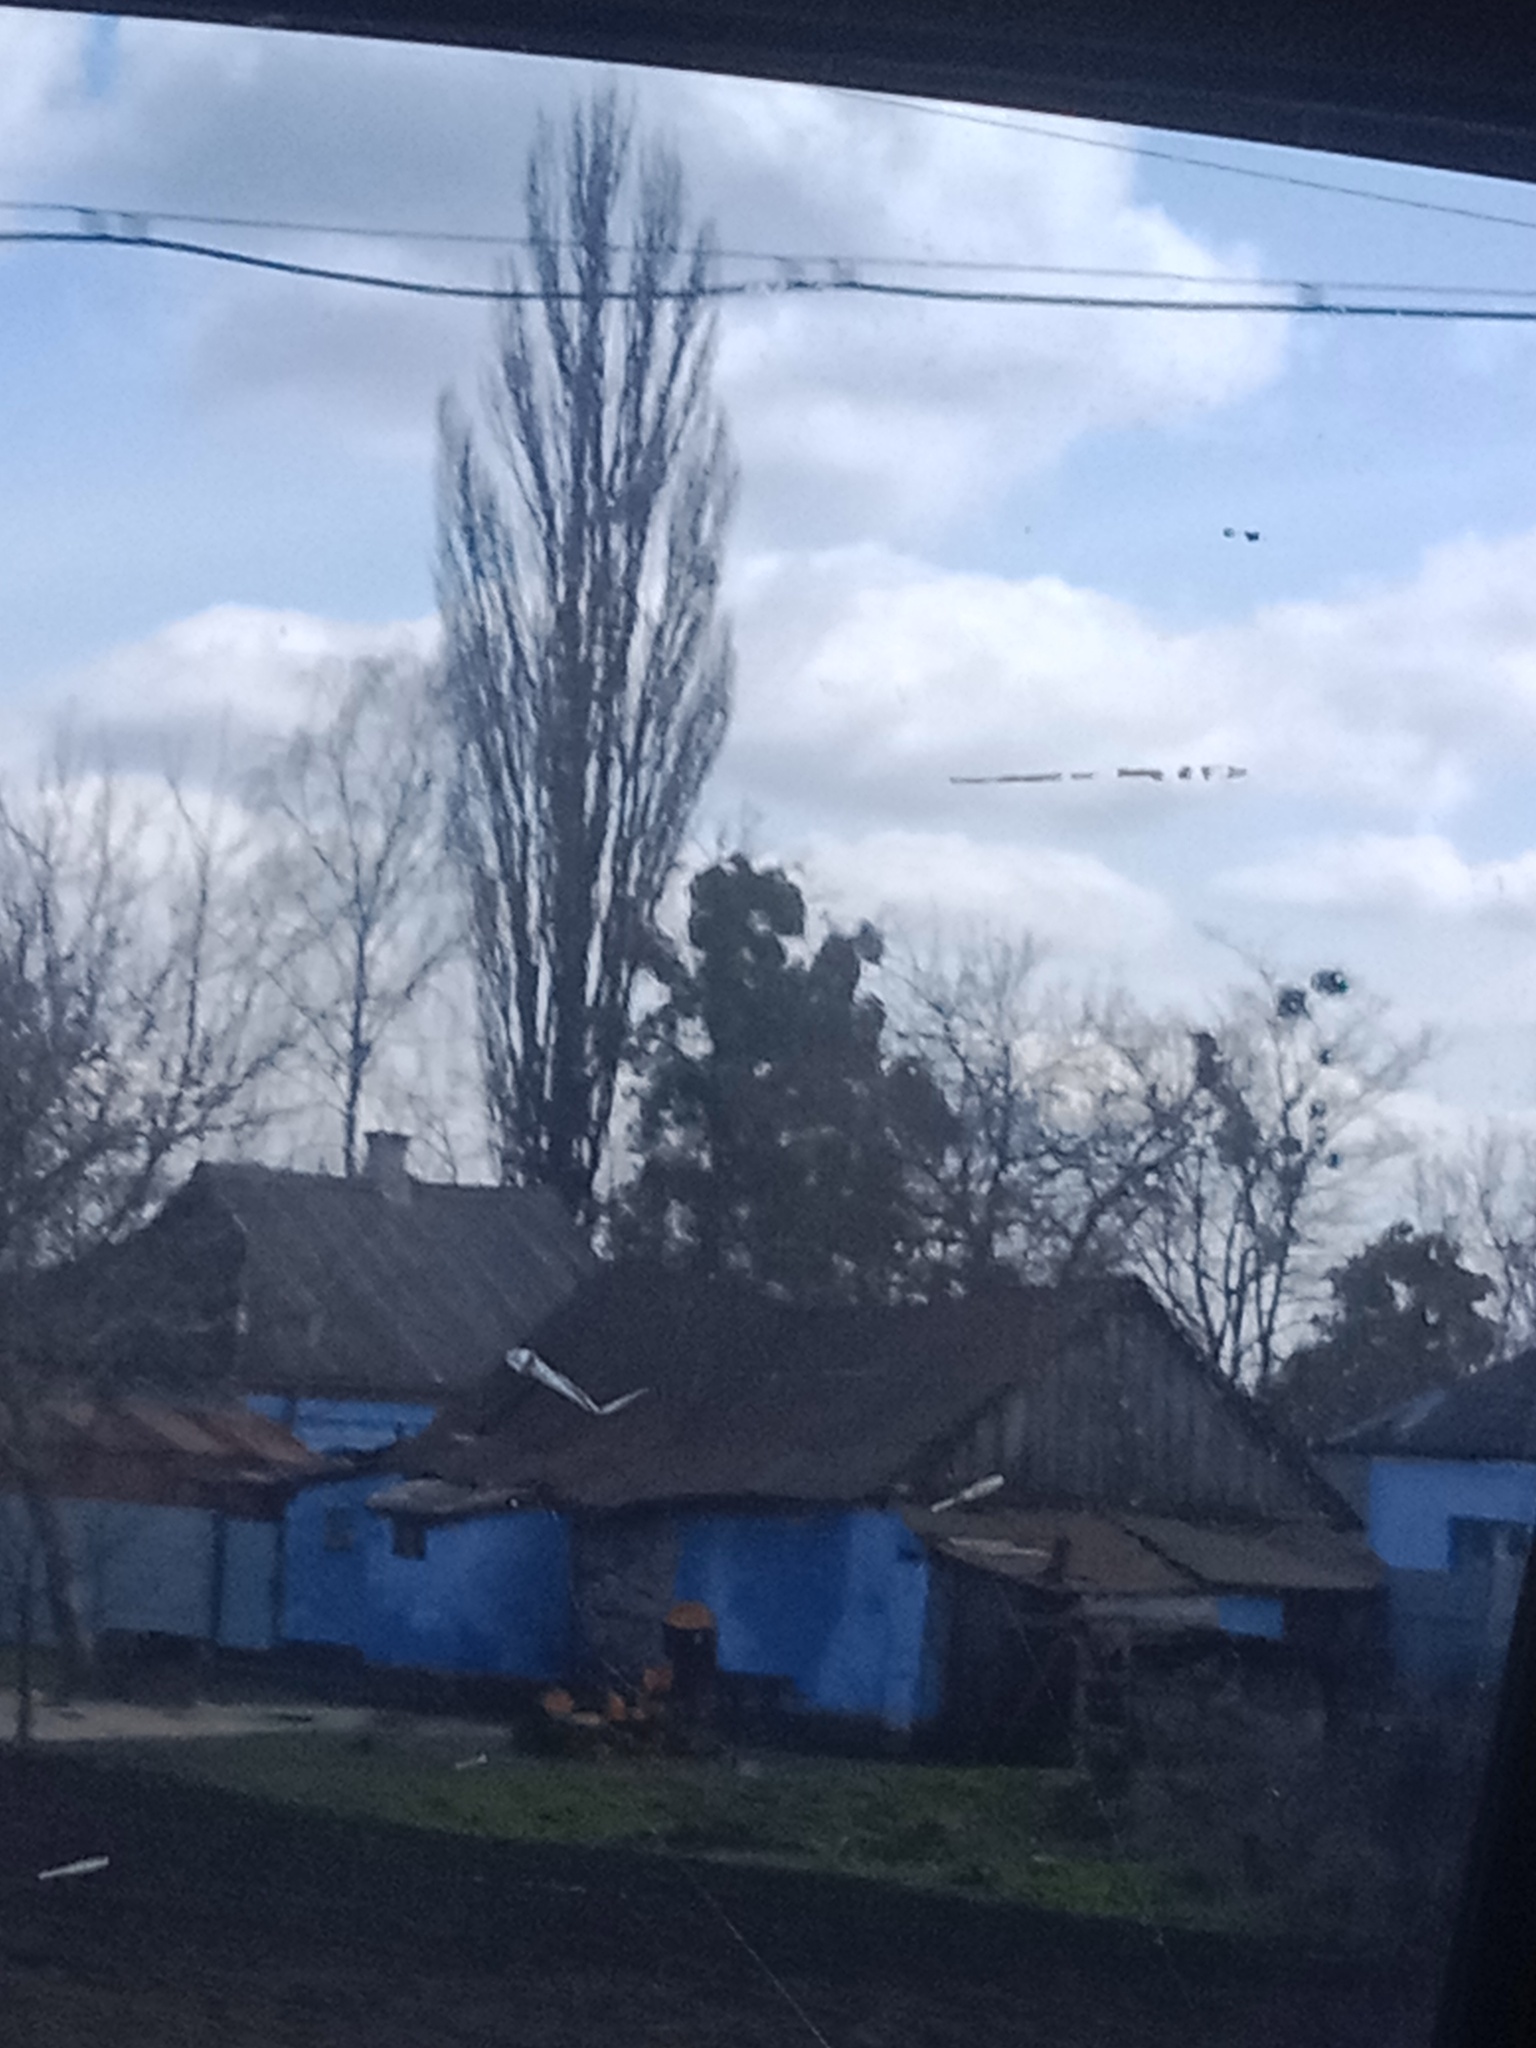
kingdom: Plantae
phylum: Tracheophyta
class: Magnoliopsida
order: Santalales
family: Viscaceae
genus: Viscum
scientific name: Viscum album
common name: Mistletoe
